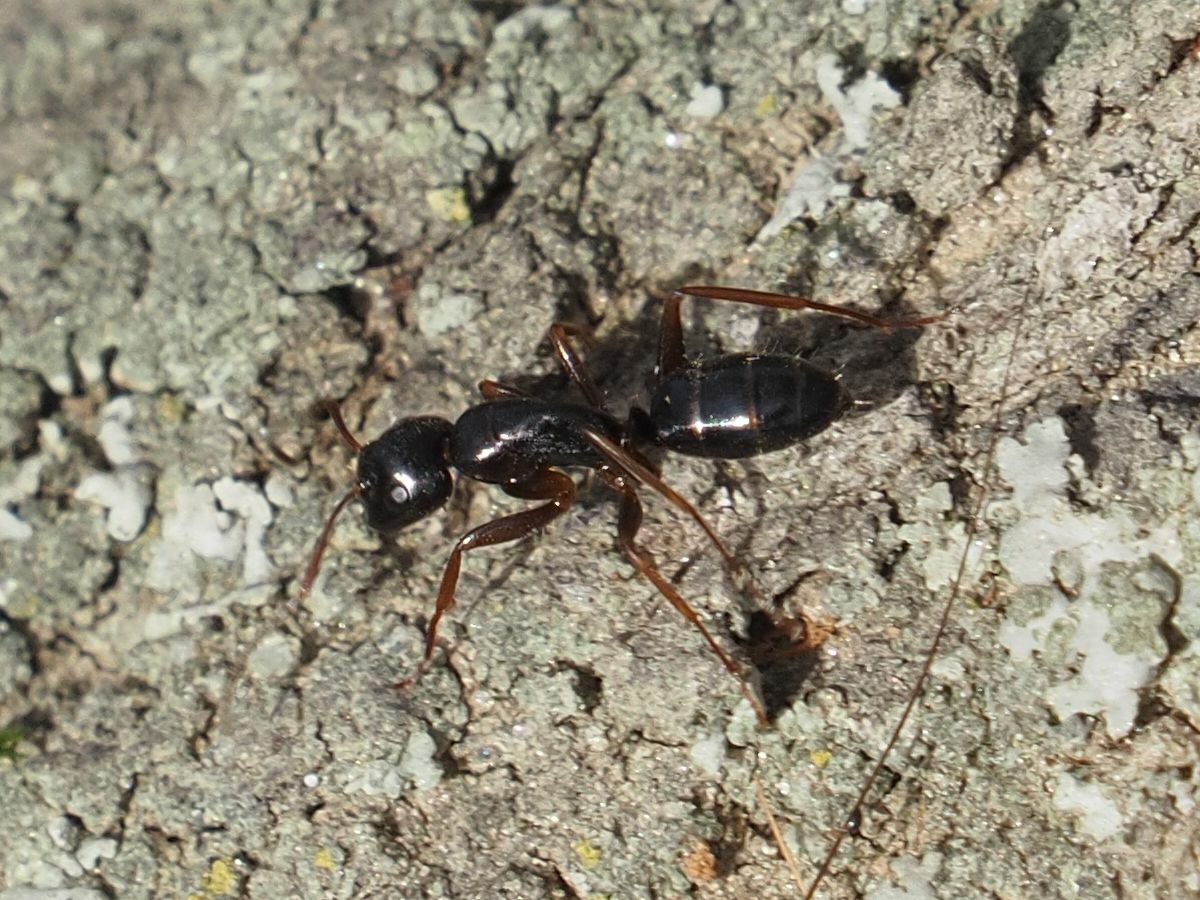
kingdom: Animalia
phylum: Arthropoda
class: Insecta
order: Hymenoptera
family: Formicidae
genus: Camponotus
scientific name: Camponotus fallax
